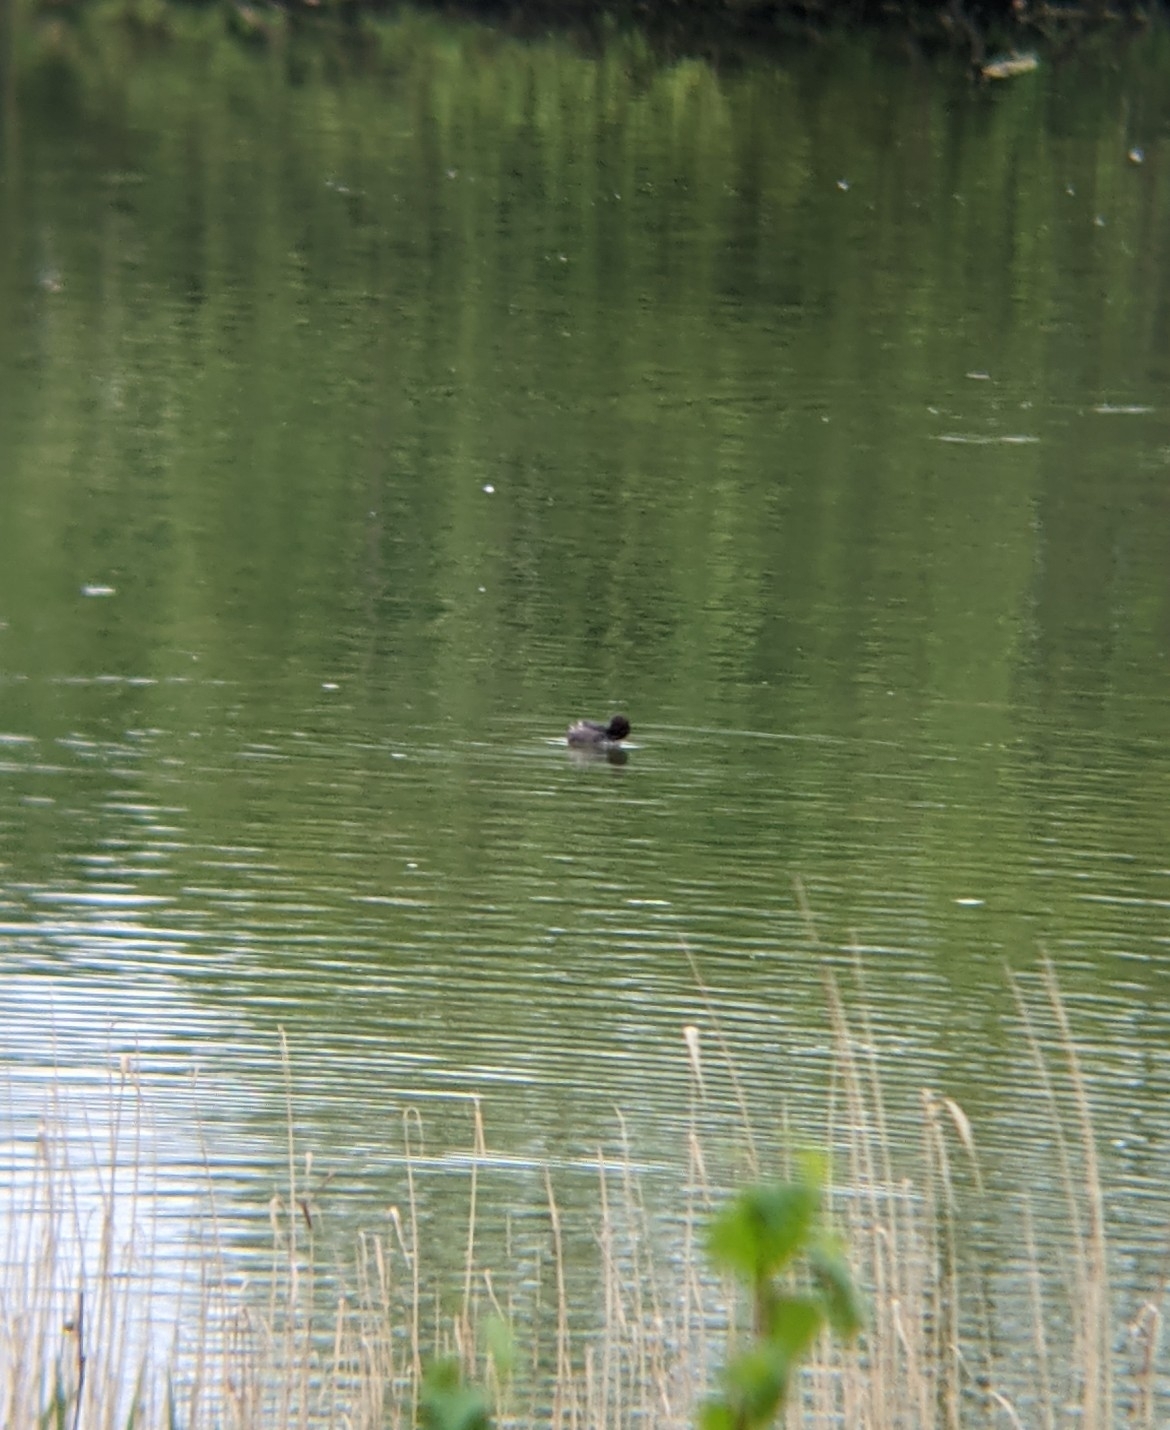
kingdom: Animalia
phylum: Chordata
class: Aves
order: Podicipediformes
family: Podicipedidae
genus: Tachybaptus
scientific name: Tachybaptus ruficollis
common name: Little grebe
